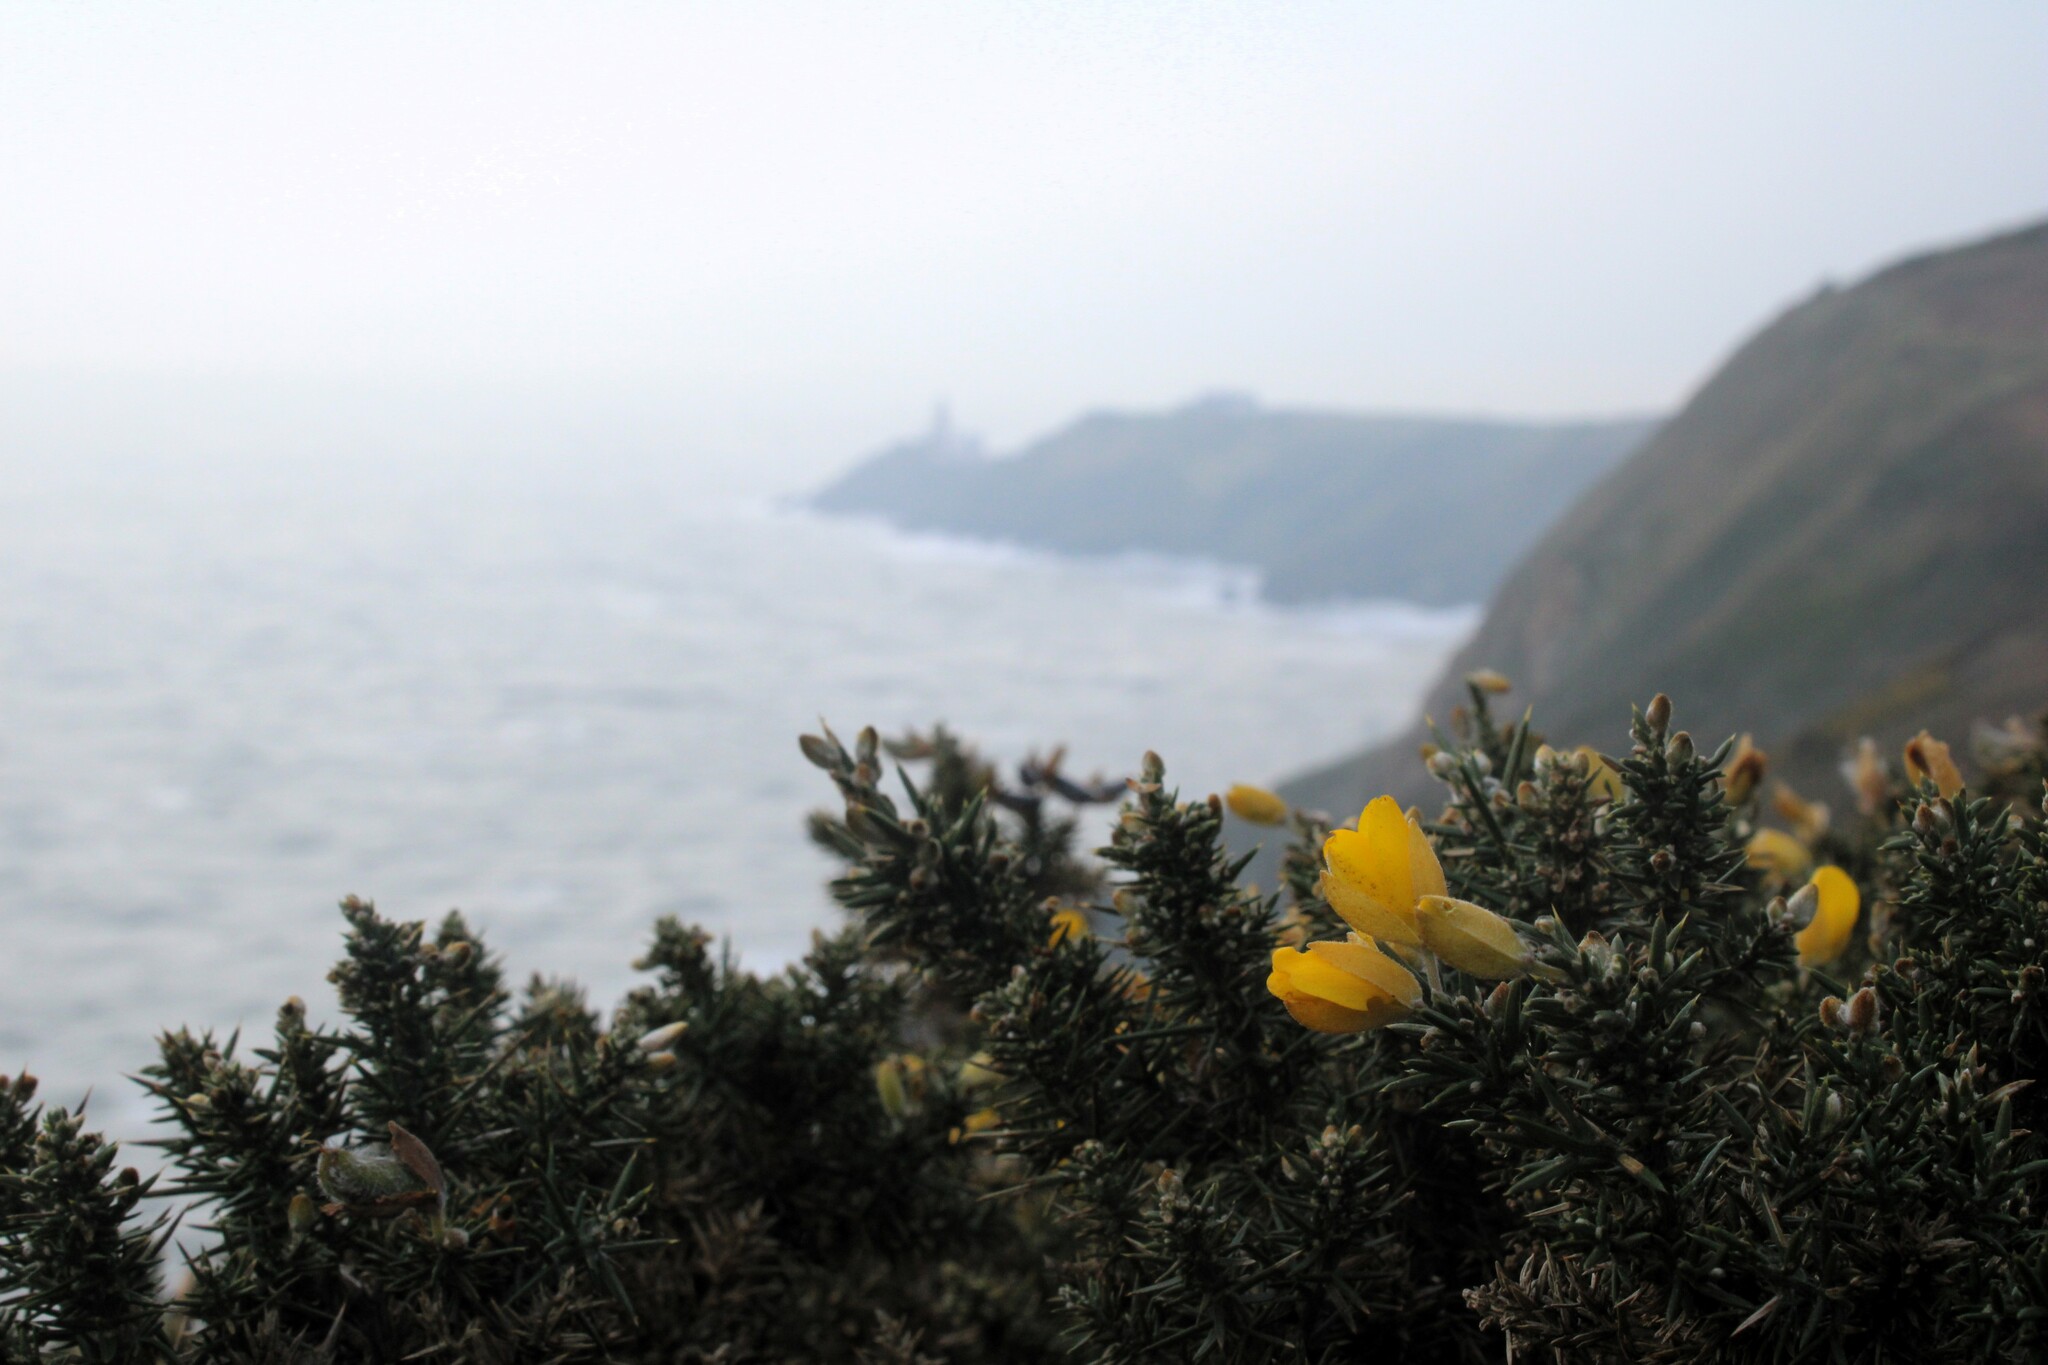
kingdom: Plantae
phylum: Tracheophyta
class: Magnoliopsida
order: Fabales
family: Fabaceae
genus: Ulex
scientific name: Ulex europaeus
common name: Common gorse
